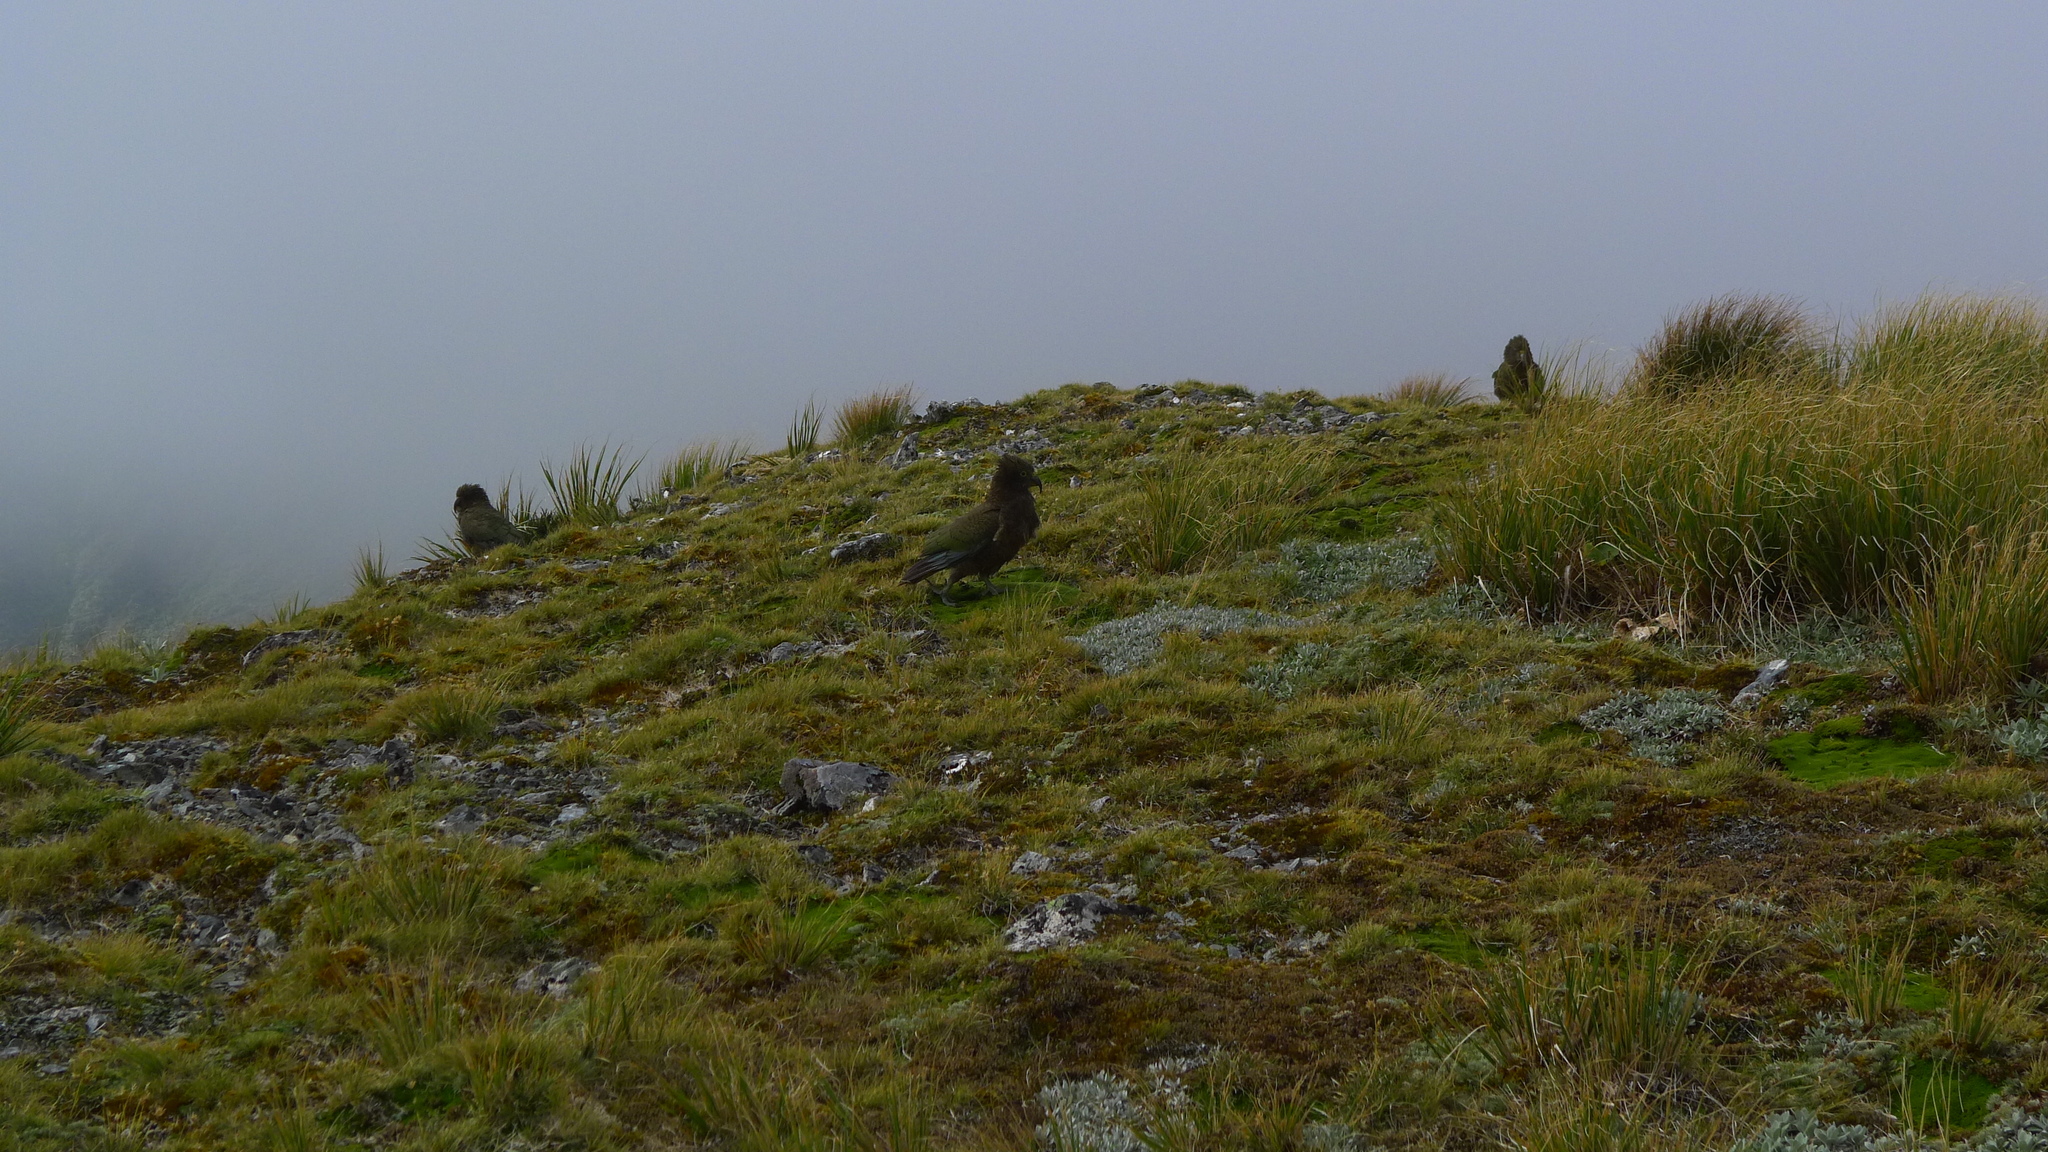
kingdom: Animalia
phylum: Chordata
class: Aves
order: Psittaciformes
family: Psittacidae
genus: Nestor
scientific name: Nestor notabilis
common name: Kea
